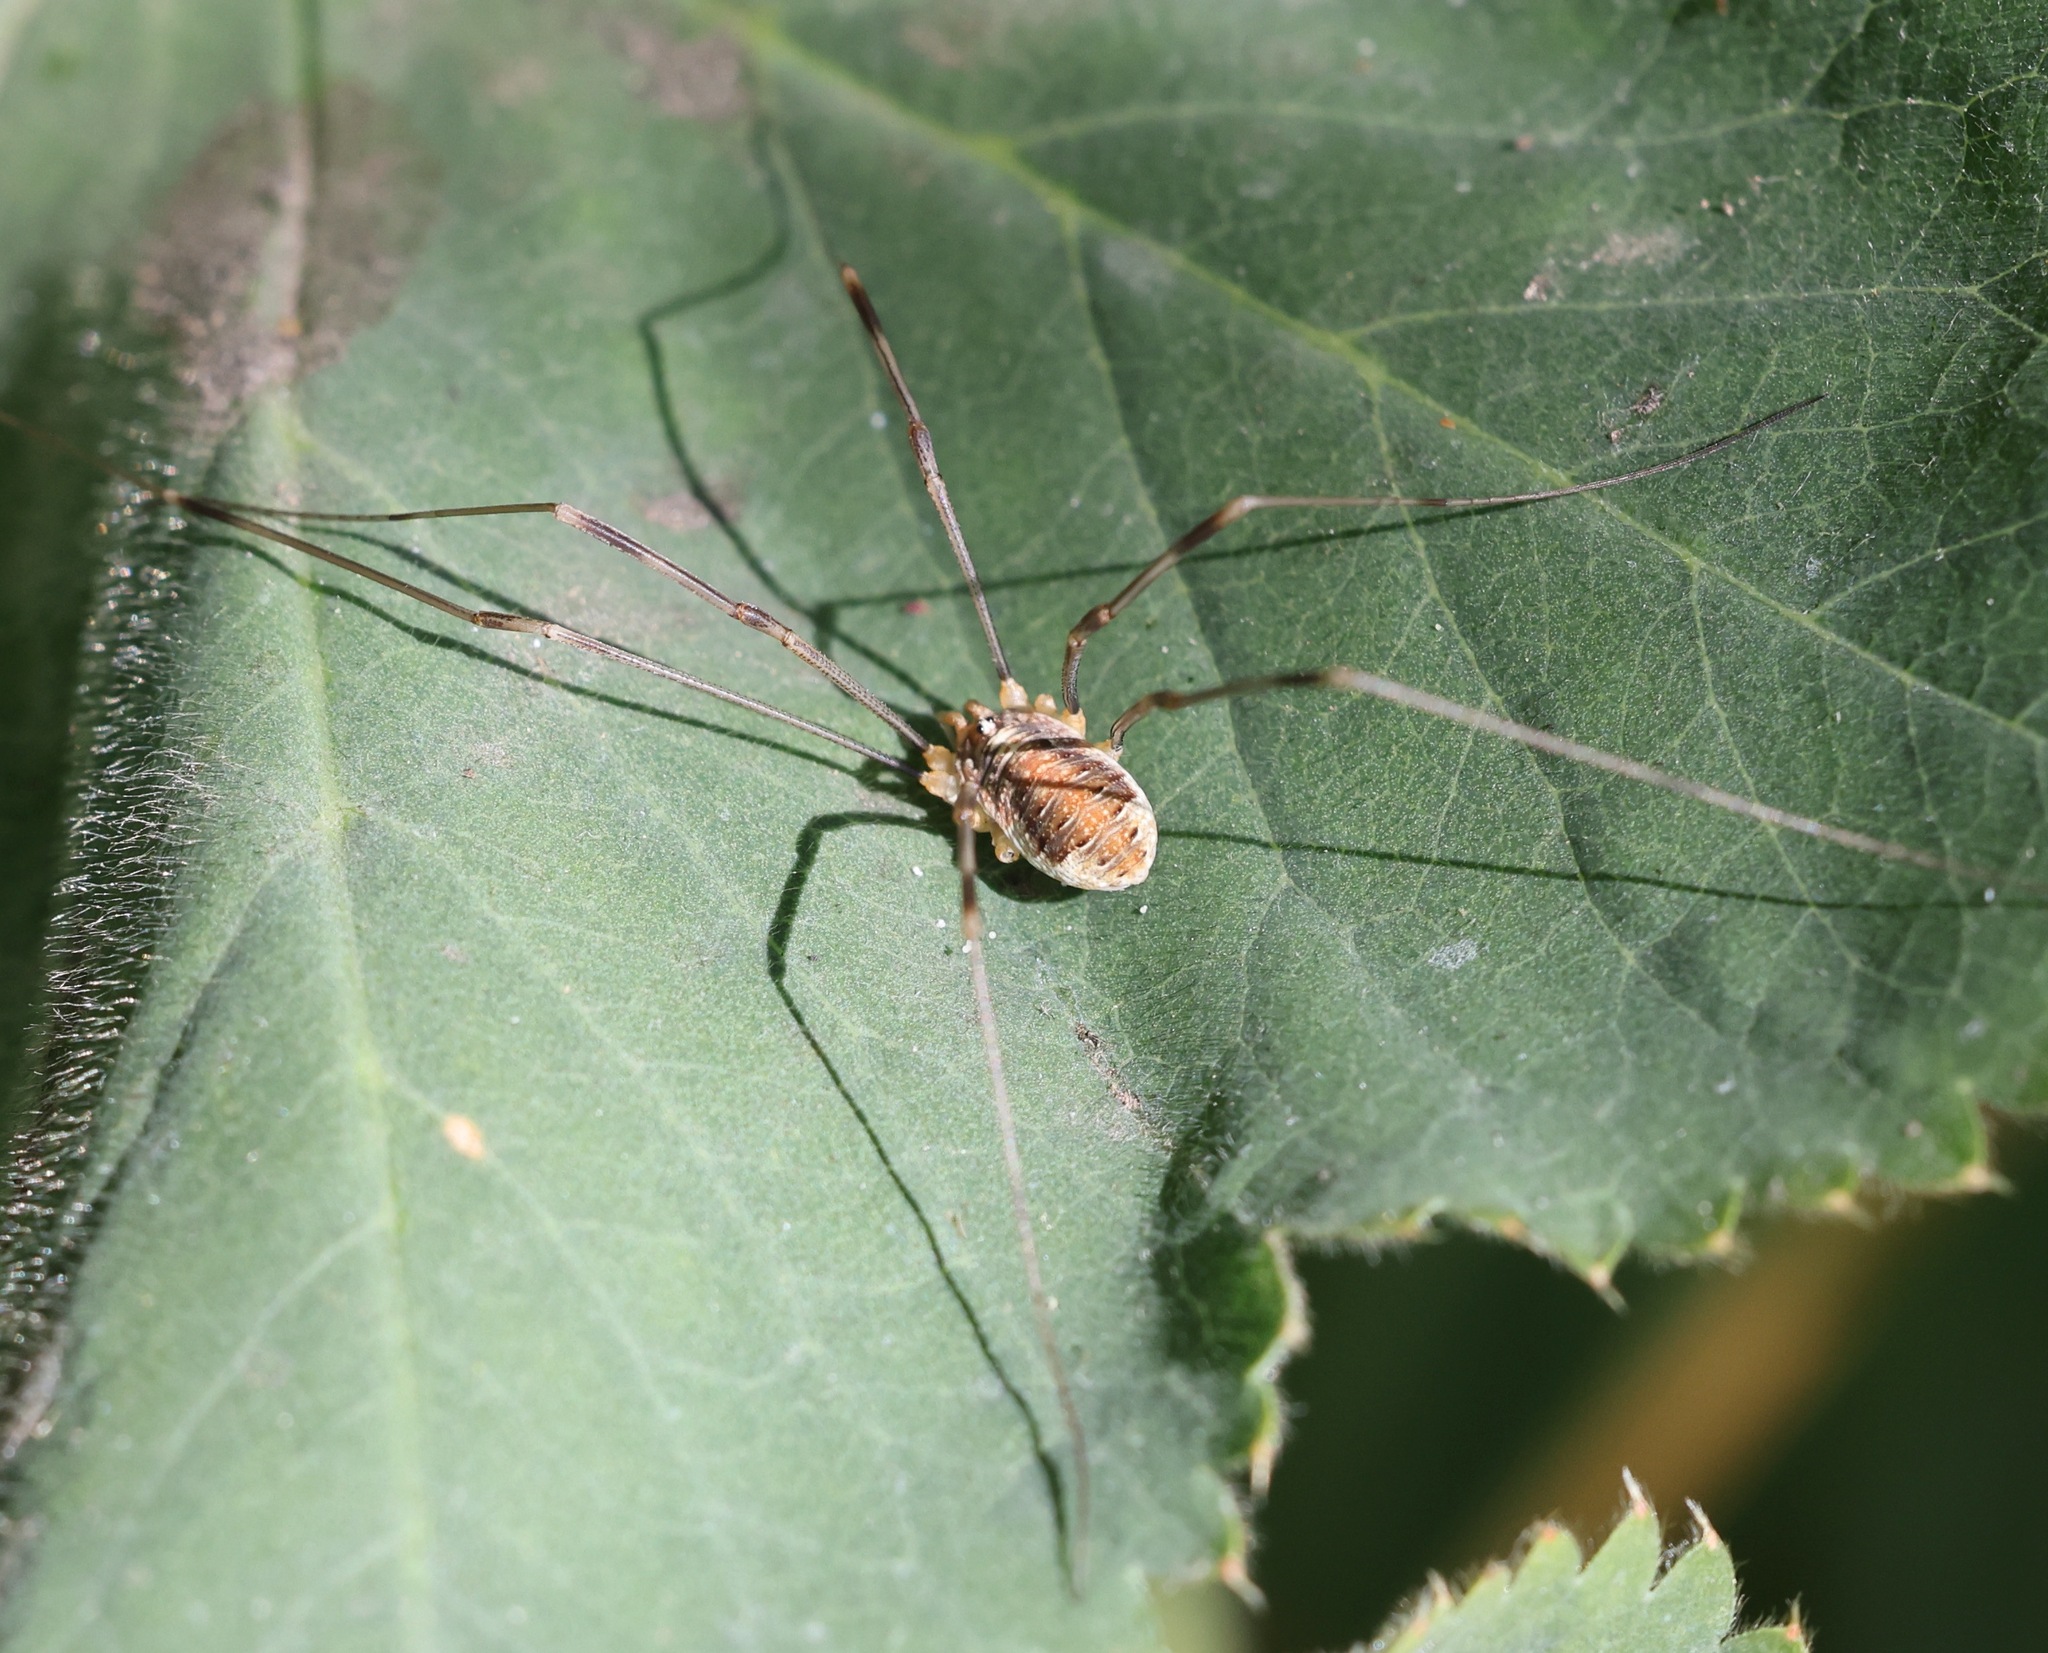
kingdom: Animalia
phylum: Arthropoda
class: Arachnida
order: Opiliones
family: Phalangiidae
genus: Opilio
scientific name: Opilio canestrinii
